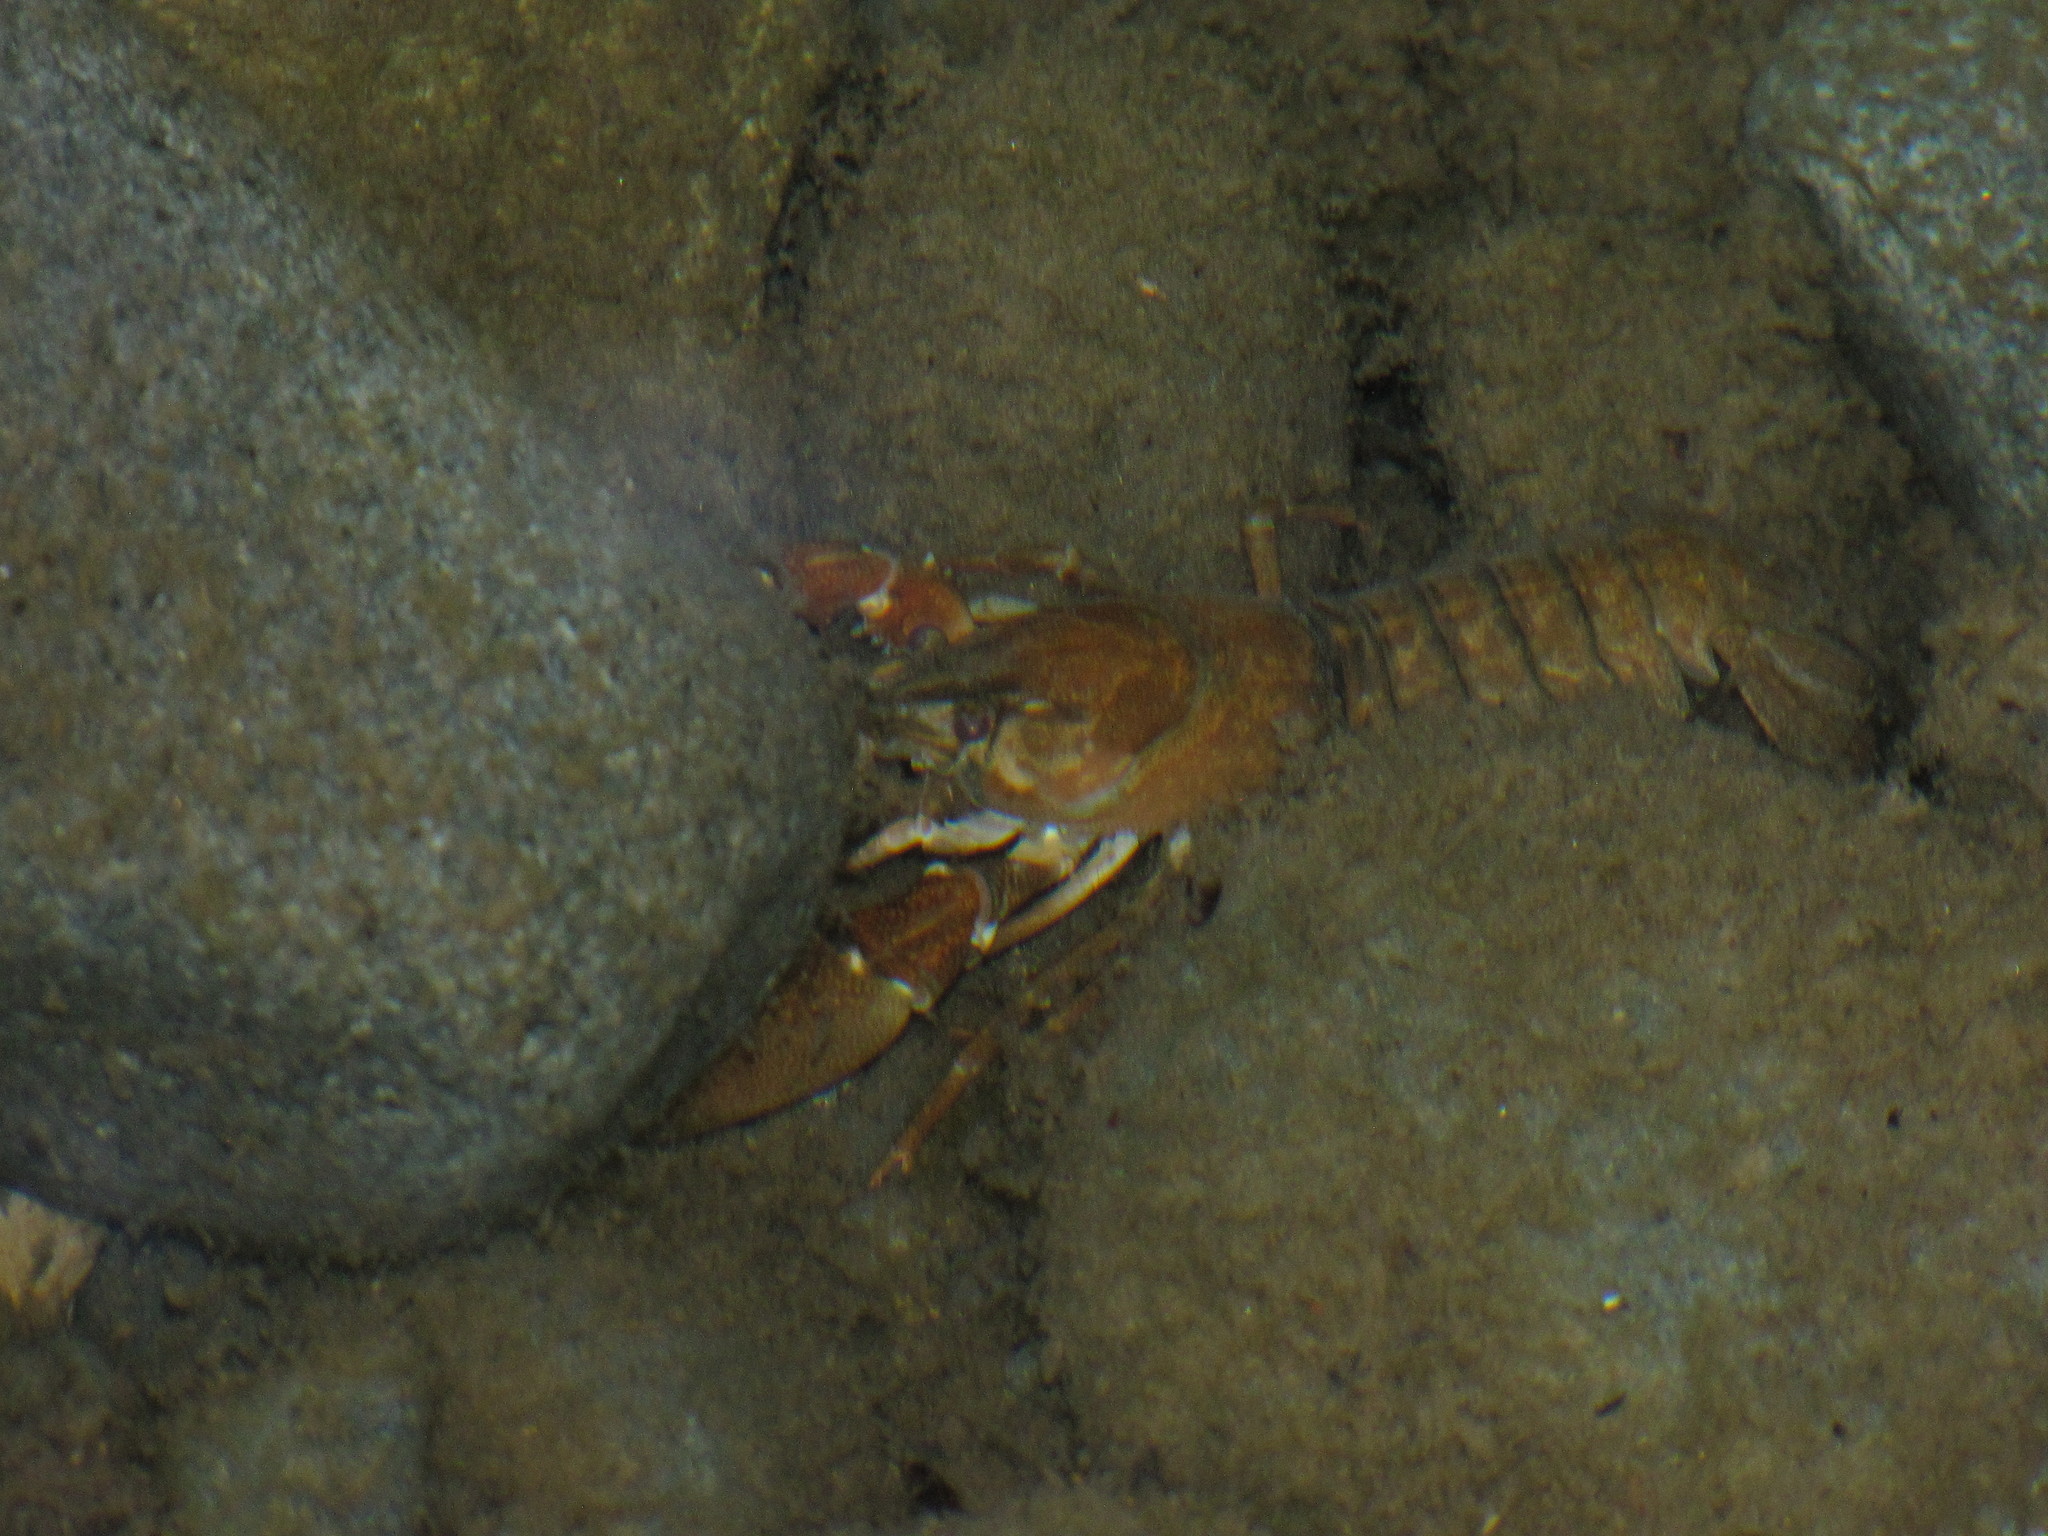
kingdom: Animalia
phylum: Arthropoda
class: Malacostraca
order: Decapoda
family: Astacidae
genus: Pacifastacus
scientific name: Pacifastacus leniusculus
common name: Signal crayfish
